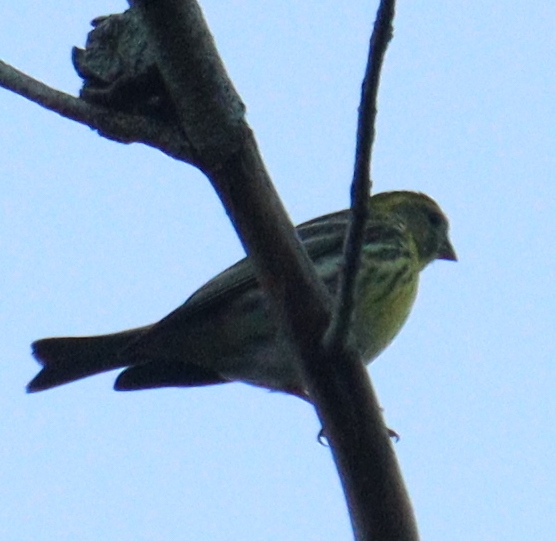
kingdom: Animalia
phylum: Chordata
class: Aves
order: Passeriformes
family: Fringillidae
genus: Serinus
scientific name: Serinus serinus
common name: European serin
